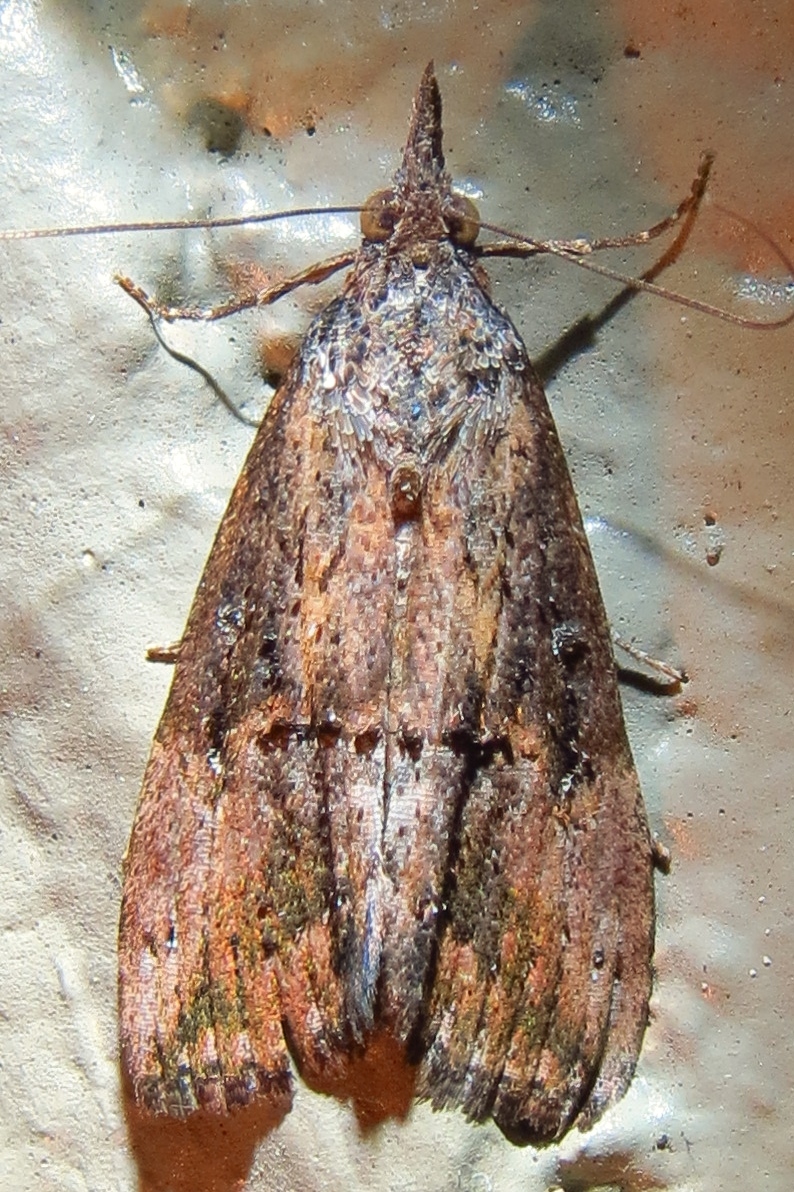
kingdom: Animalia
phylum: Arthropoda
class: Insecta
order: Lepidoptera
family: Erebidae
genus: Hypena
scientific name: Hypena scabra
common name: Green cloverworm
